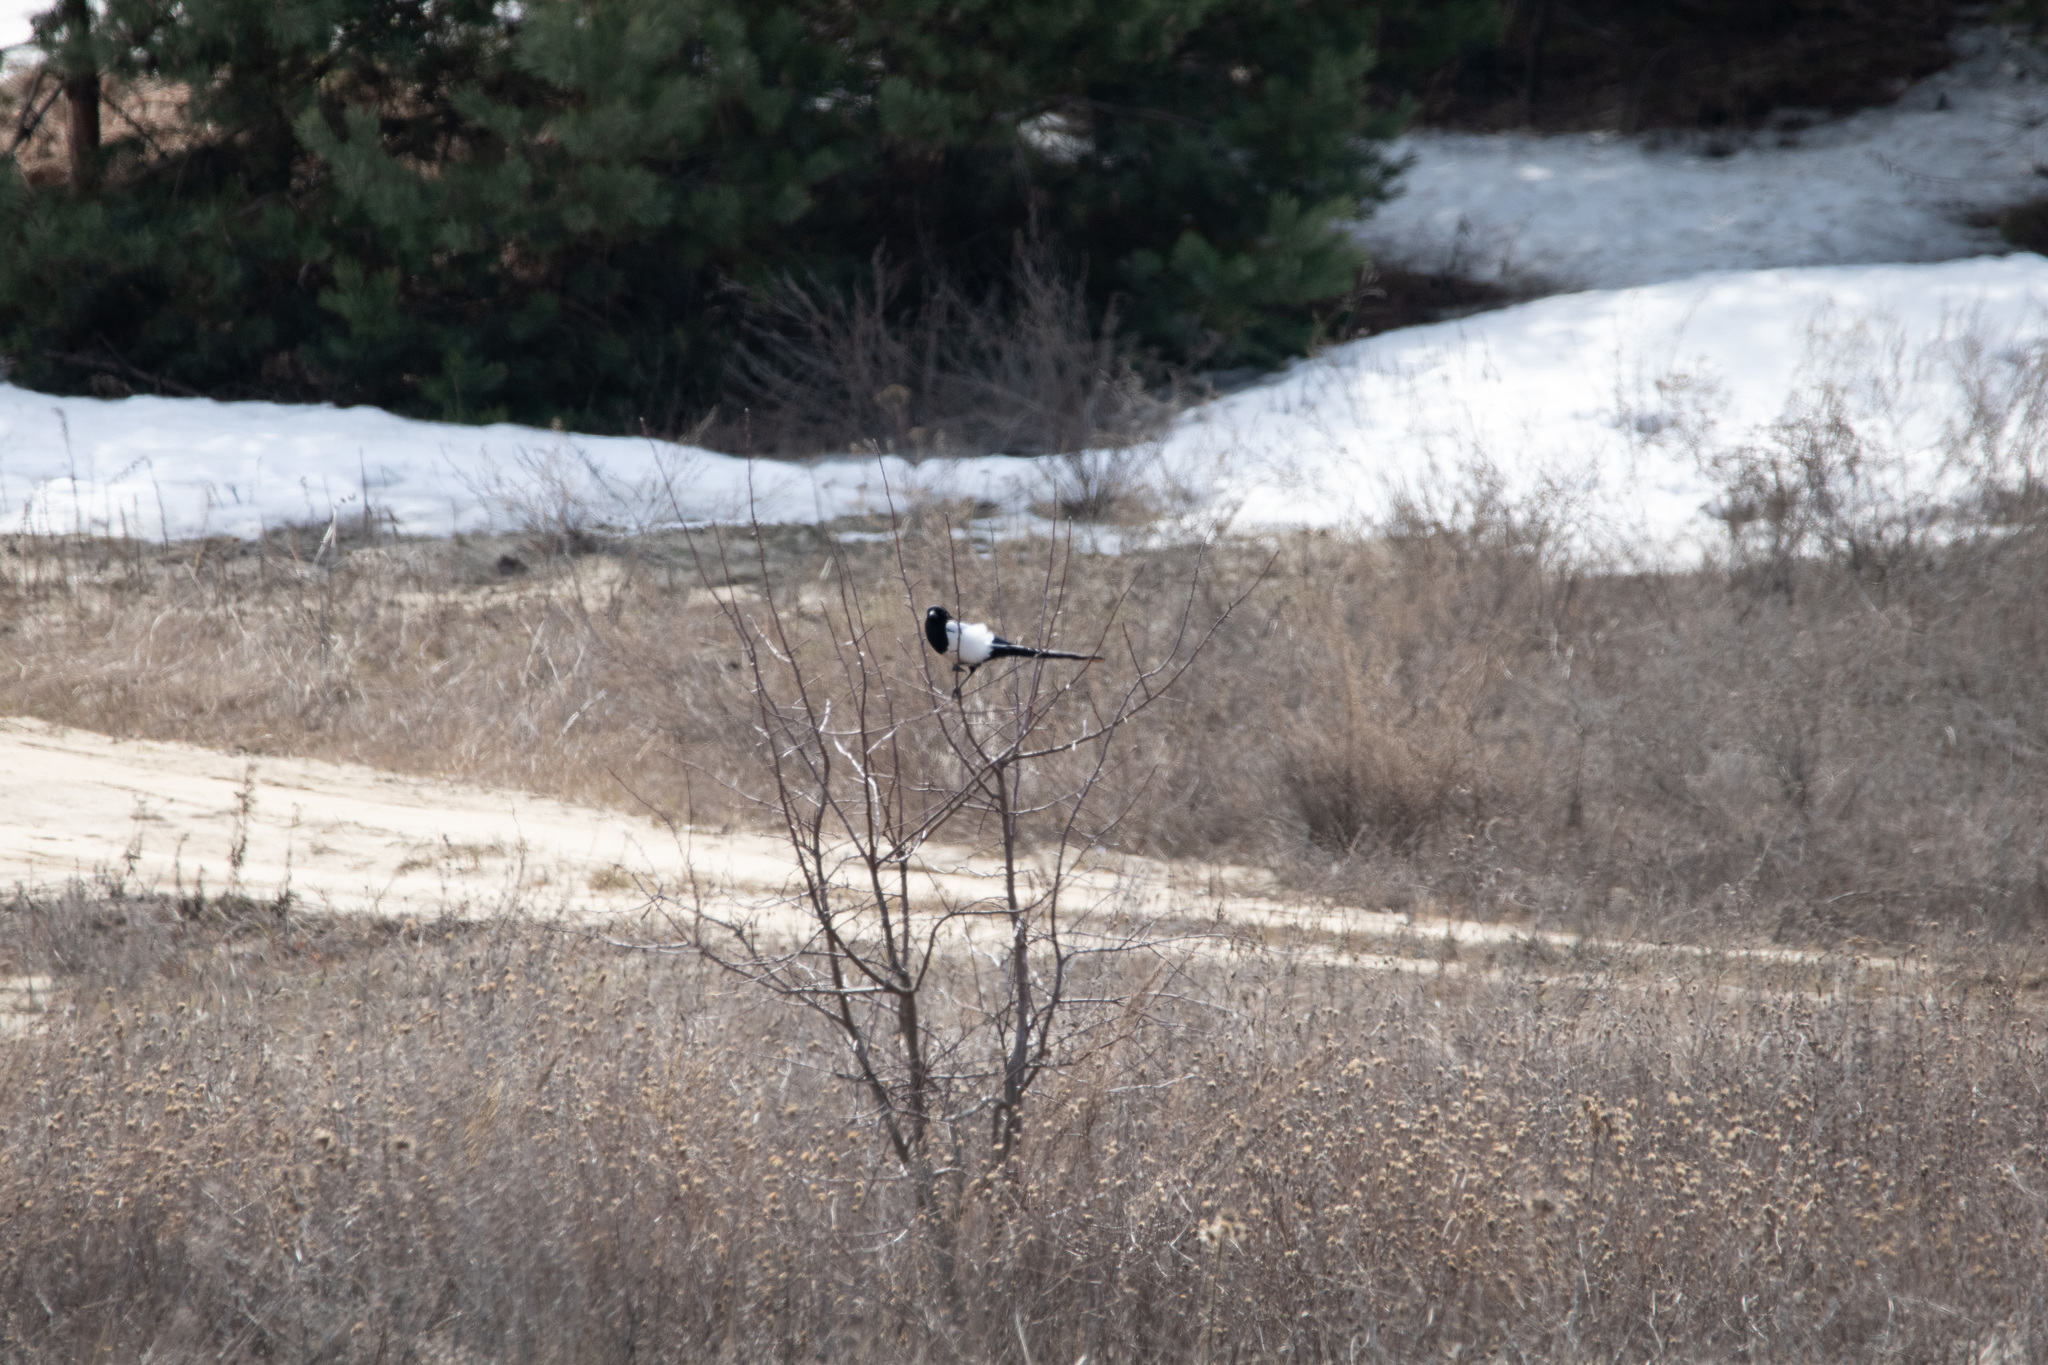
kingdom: Animalia
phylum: Chordata
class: Aves
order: Passeriformes
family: Corvidae
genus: Pica
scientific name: Pica pica
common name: Eurasian magpie
